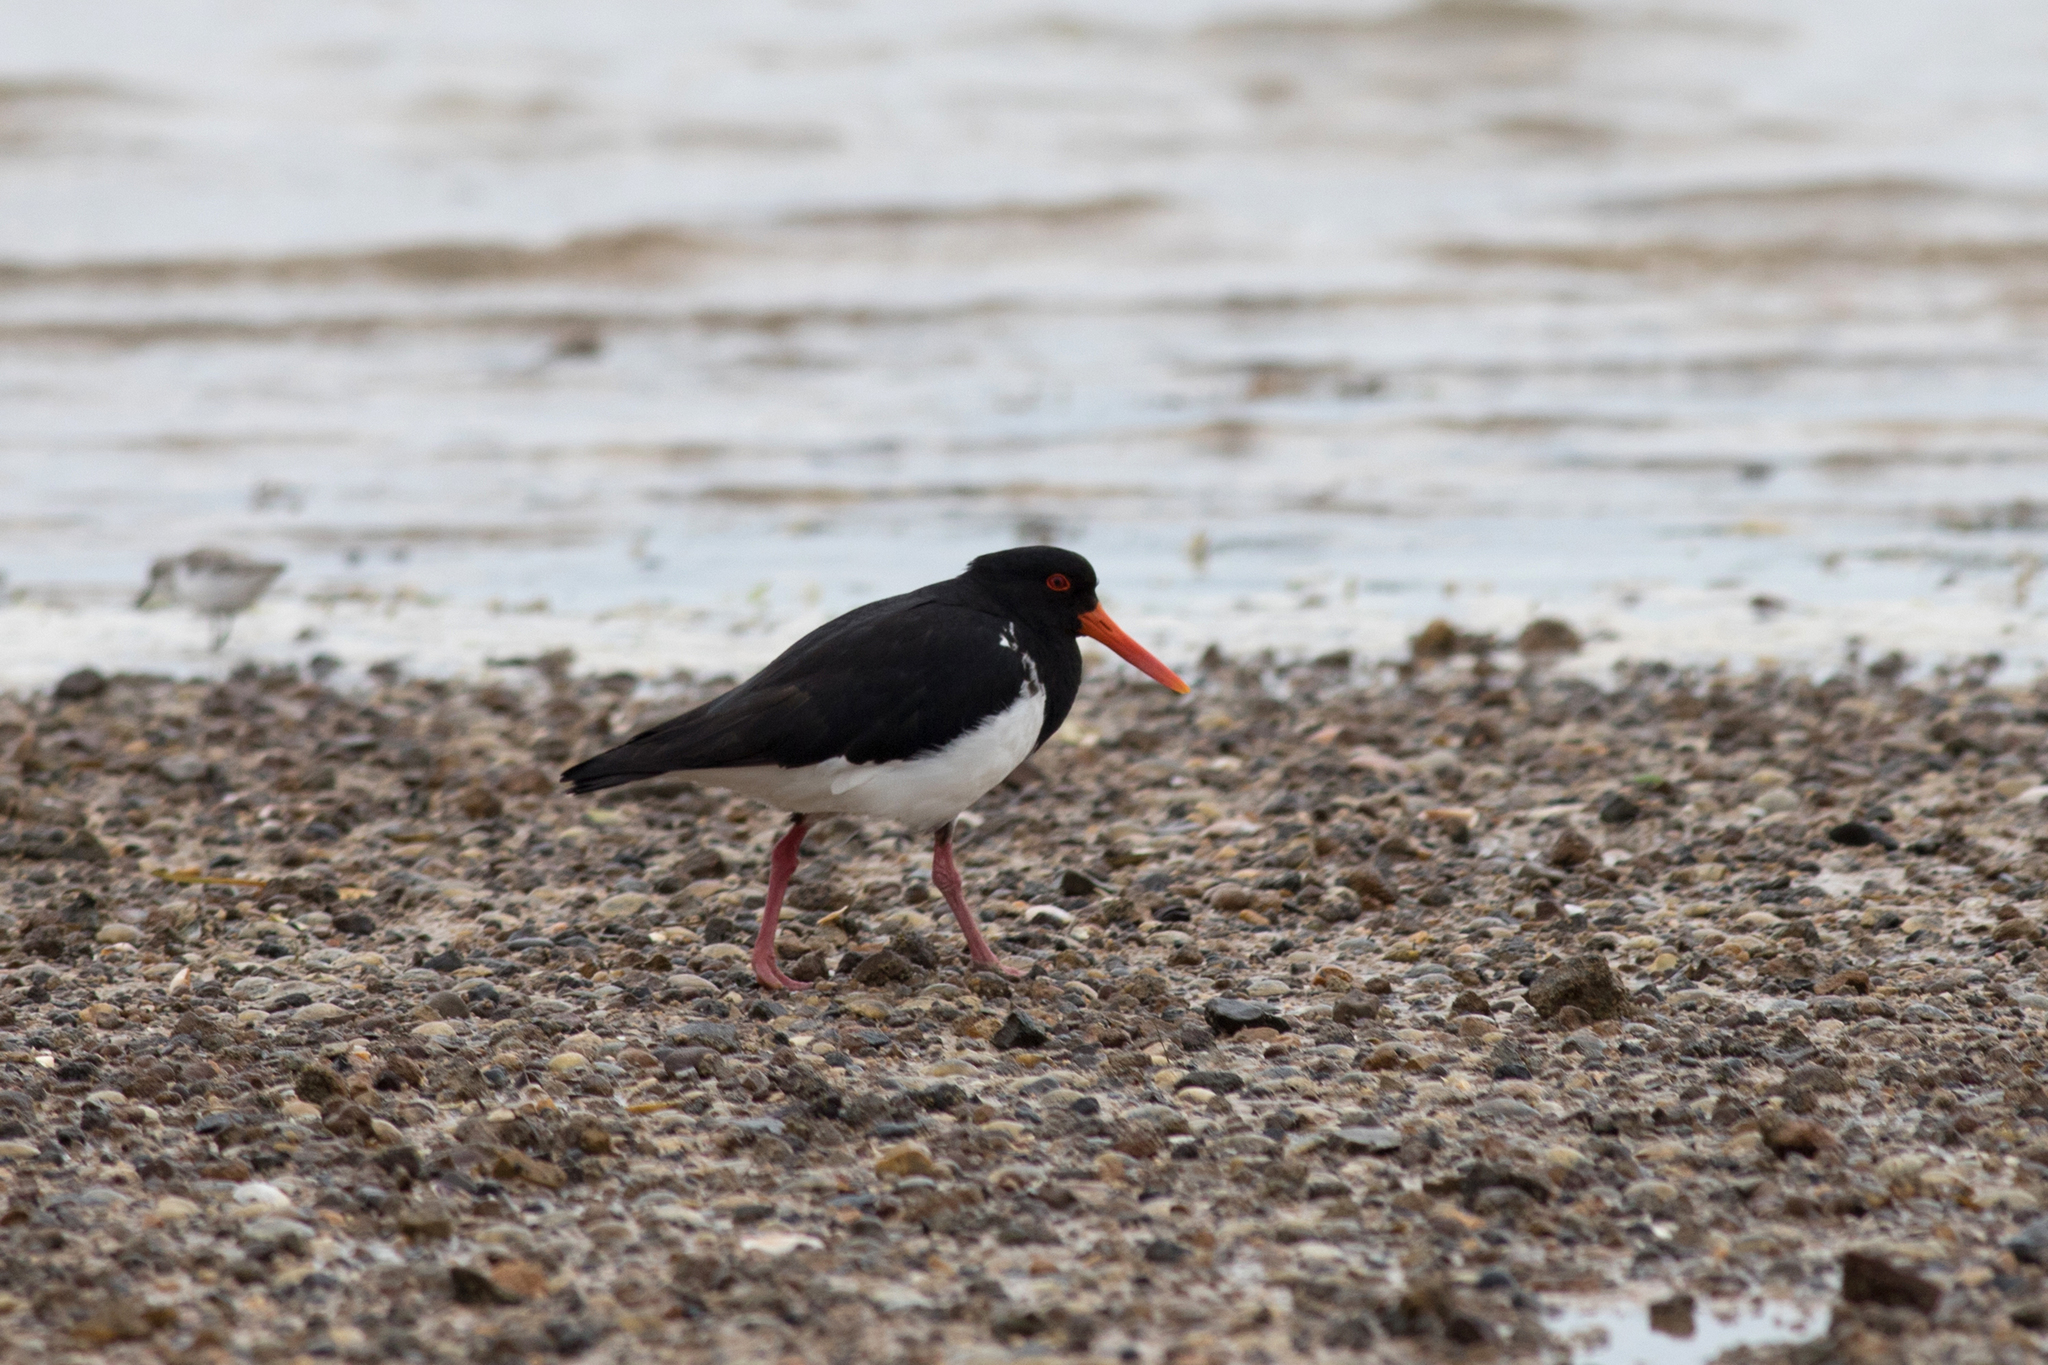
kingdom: Animalia
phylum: Chordata
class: Aves
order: Charadriiformes
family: Haematopodidae
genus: Haematopus
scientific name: Haematopus longirostris
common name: Pied oystercatcher
